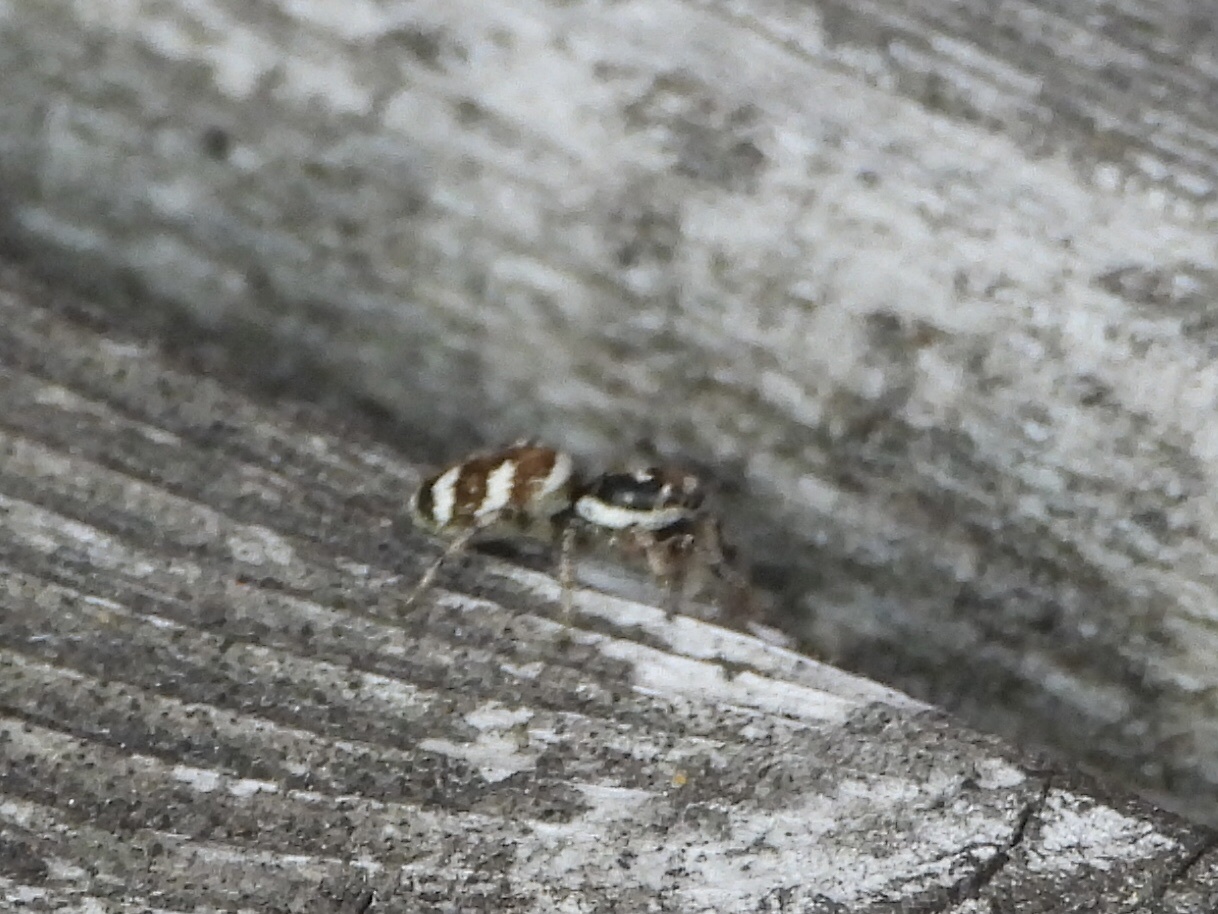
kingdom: Animalia
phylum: Arthropoda
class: Arachnida
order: Araneae
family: Salticidae
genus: Salticus
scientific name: Salticus scenicus
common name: Zebra jumper
